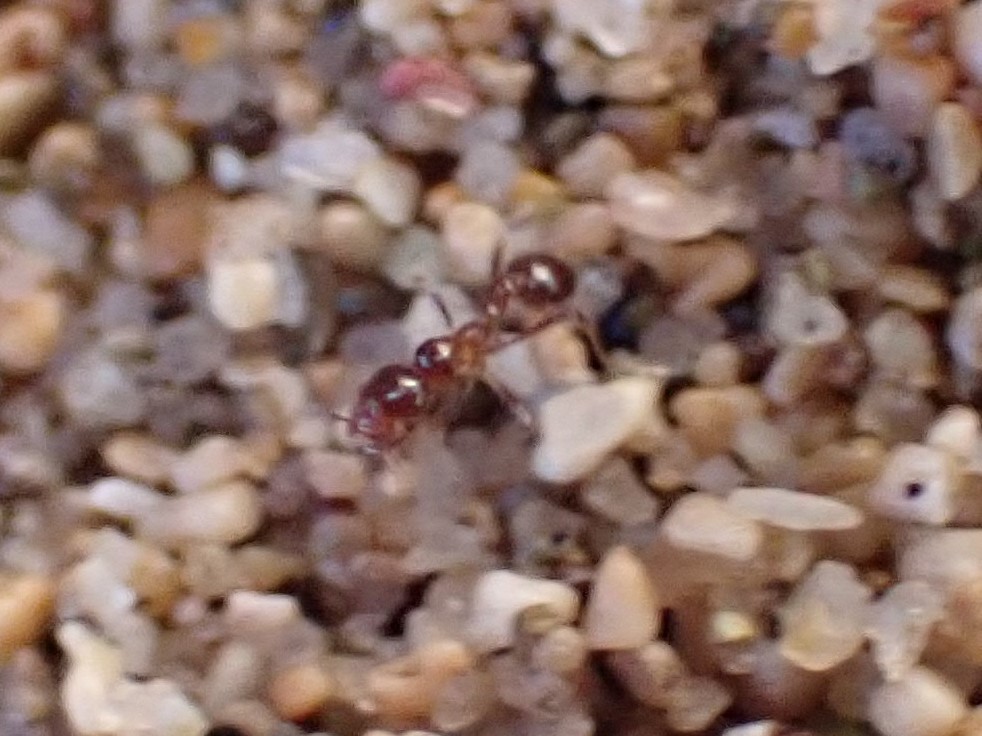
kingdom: Animalia
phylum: Arthropoda
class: Insecta
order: Hymenoptera
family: Formicidae
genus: Solenopsis
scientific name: Solenopsis geminata
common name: Tropical fire ant
